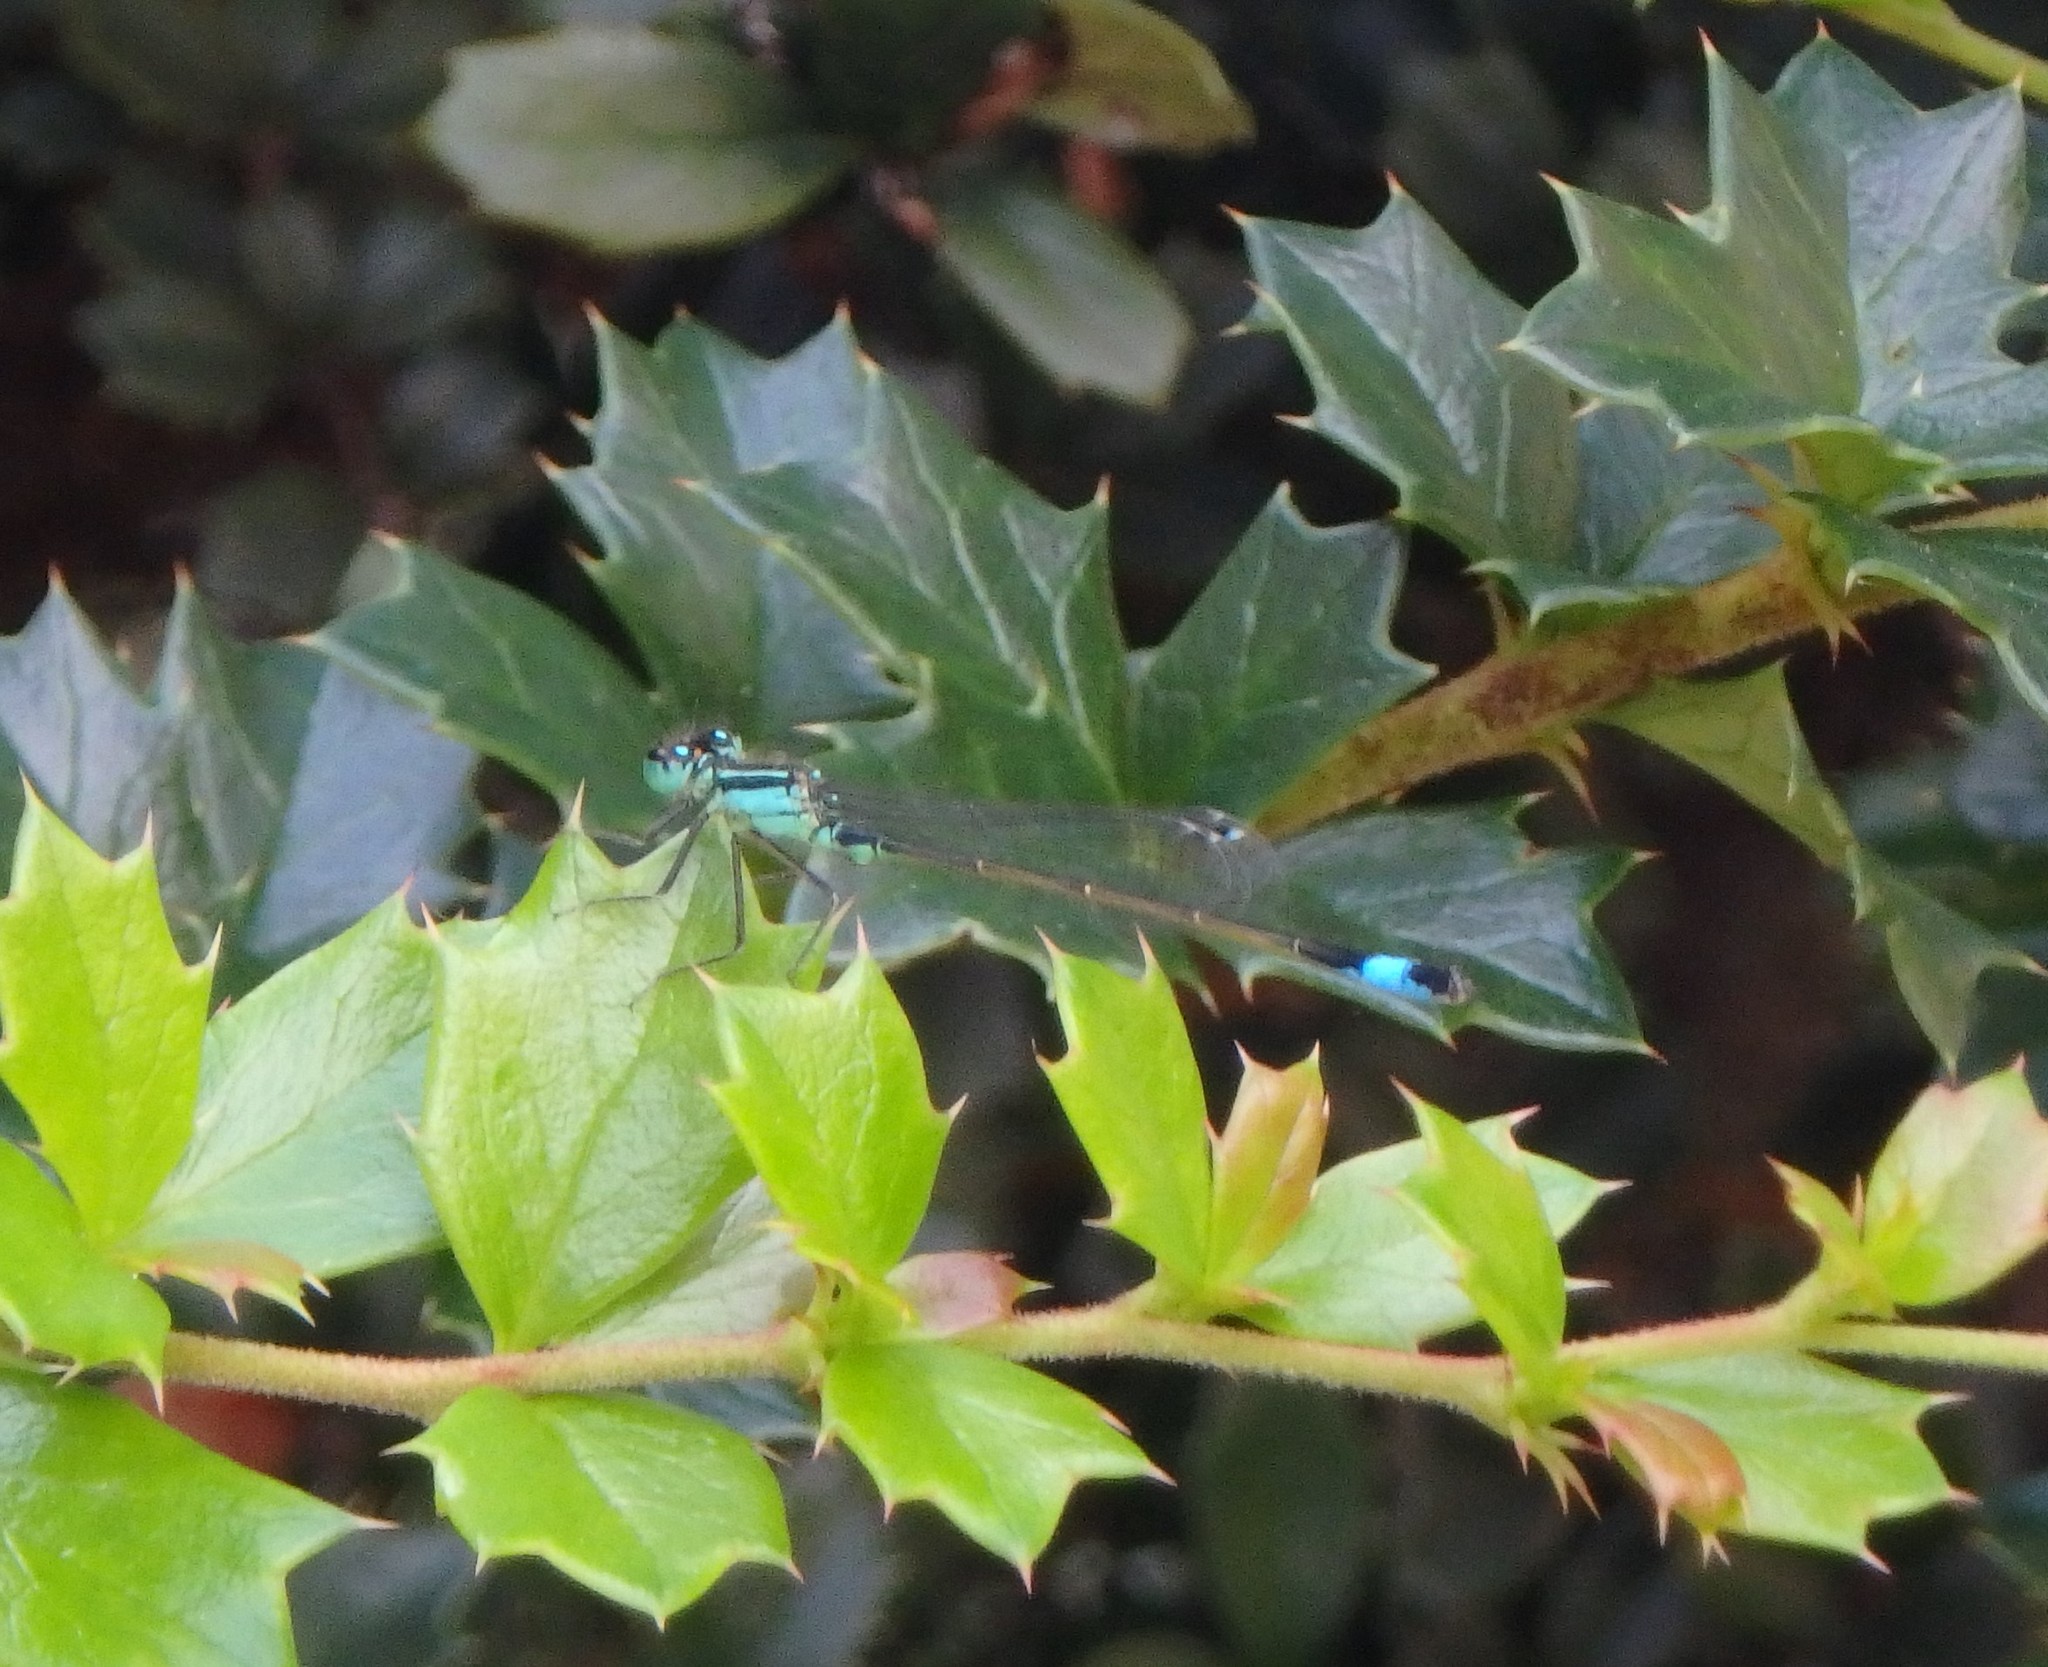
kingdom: Animalia
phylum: Arthropoda
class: Insecta
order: Odonata
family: Coenagrionidae
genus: Ischnura
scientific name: Ischnura elegans
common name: Blue-tailed damselfly
